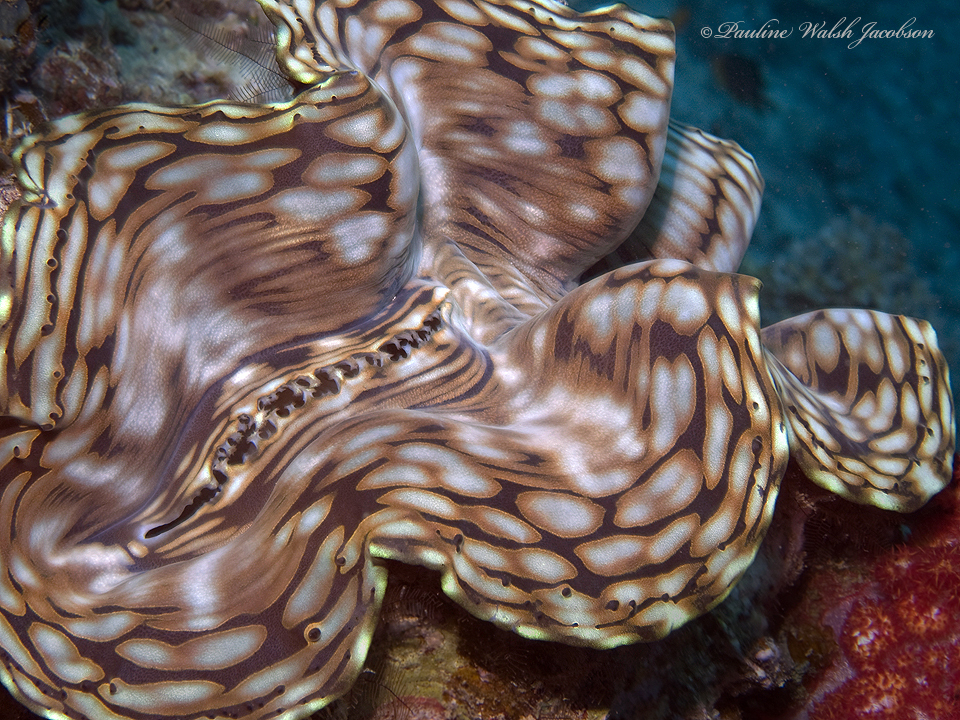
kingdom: Animalia
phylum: Mollusca
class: Bivalvia
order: Cardiida
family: Cardiidae
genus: Tridacna
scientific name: Tridacna squamosa
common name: Fluted clam
